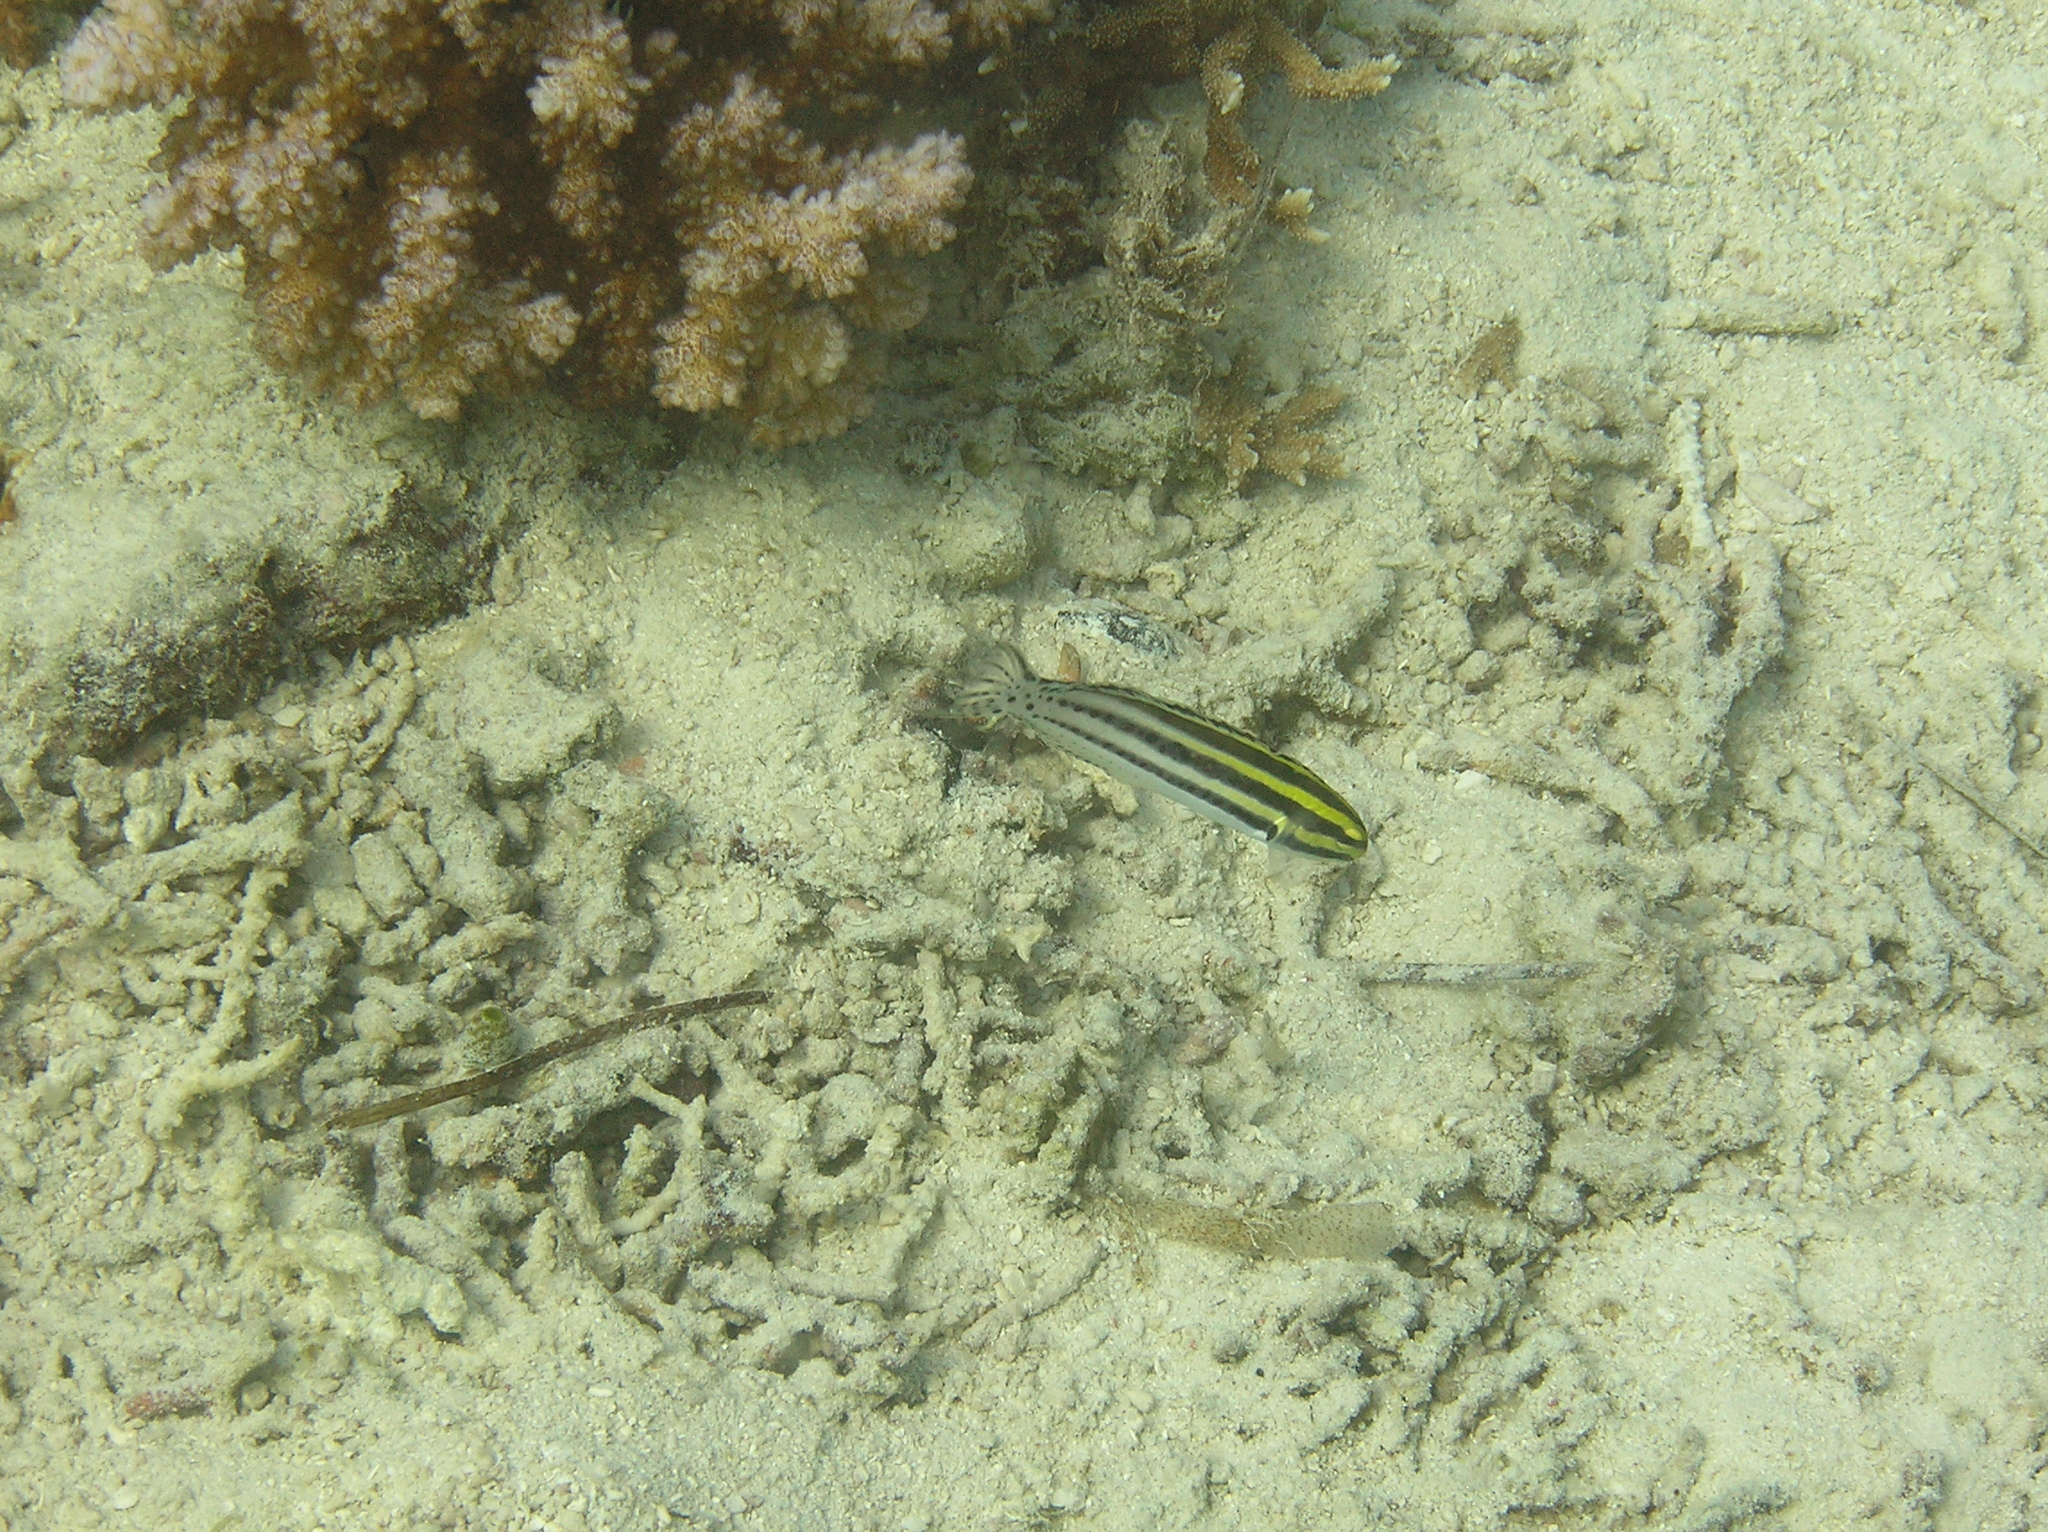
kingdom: Animalia
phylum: Chordata
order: Perciformes
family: Blenniidae
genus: Meiacanthus
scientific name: Meiacanthus grammistes
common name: Grammistes blenny
